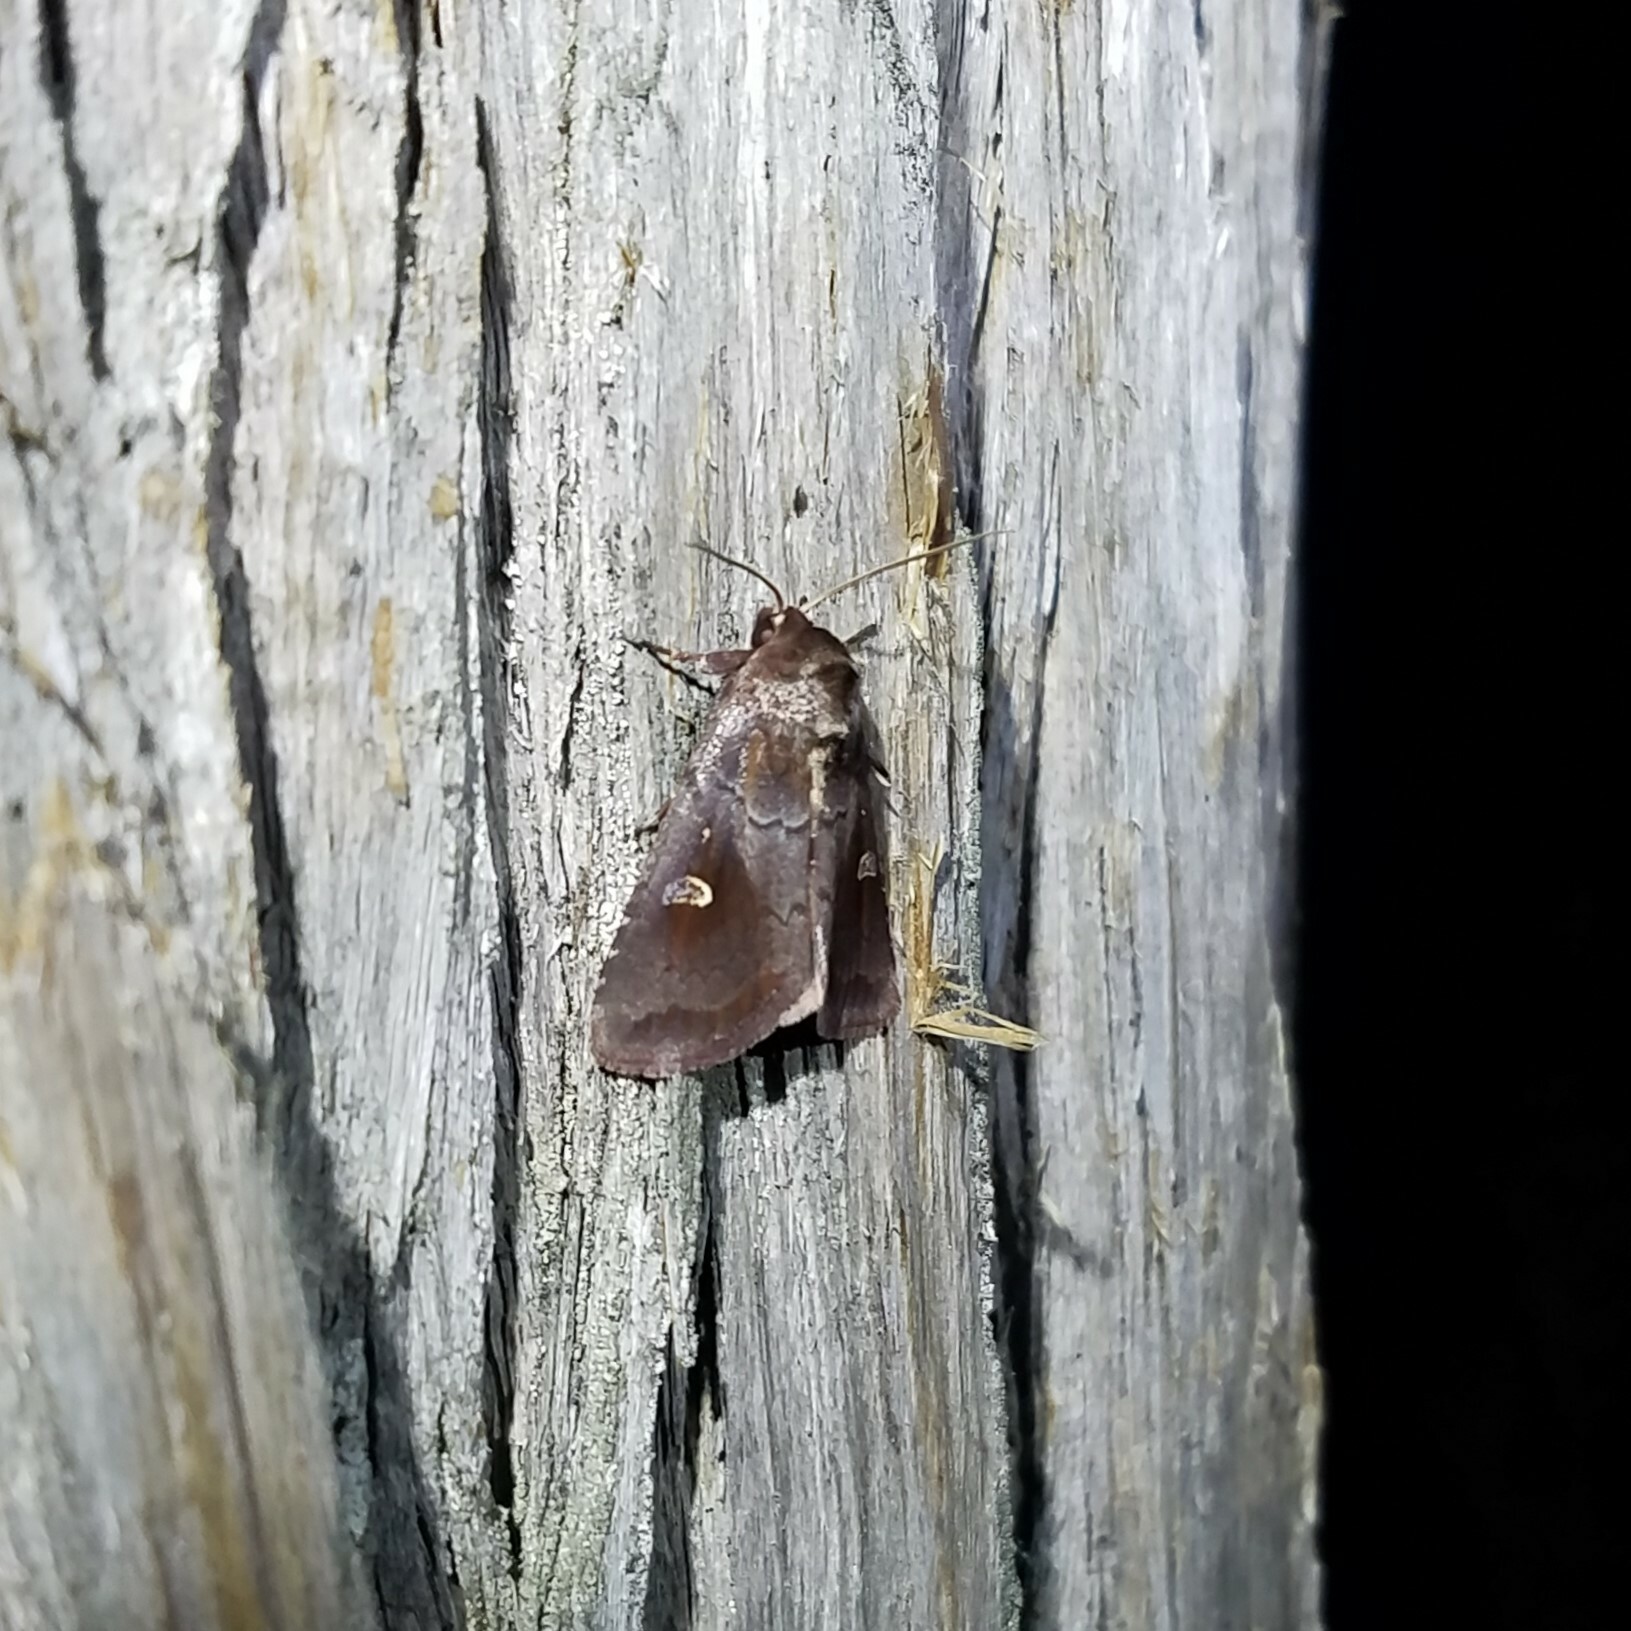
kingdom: Animalia
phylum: Arthropoda
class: Insecta
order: Lepidoptera
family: Noctuidae
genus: Iodopepla
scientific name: Iodopepla ualbum
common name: White-eyed borer moth
